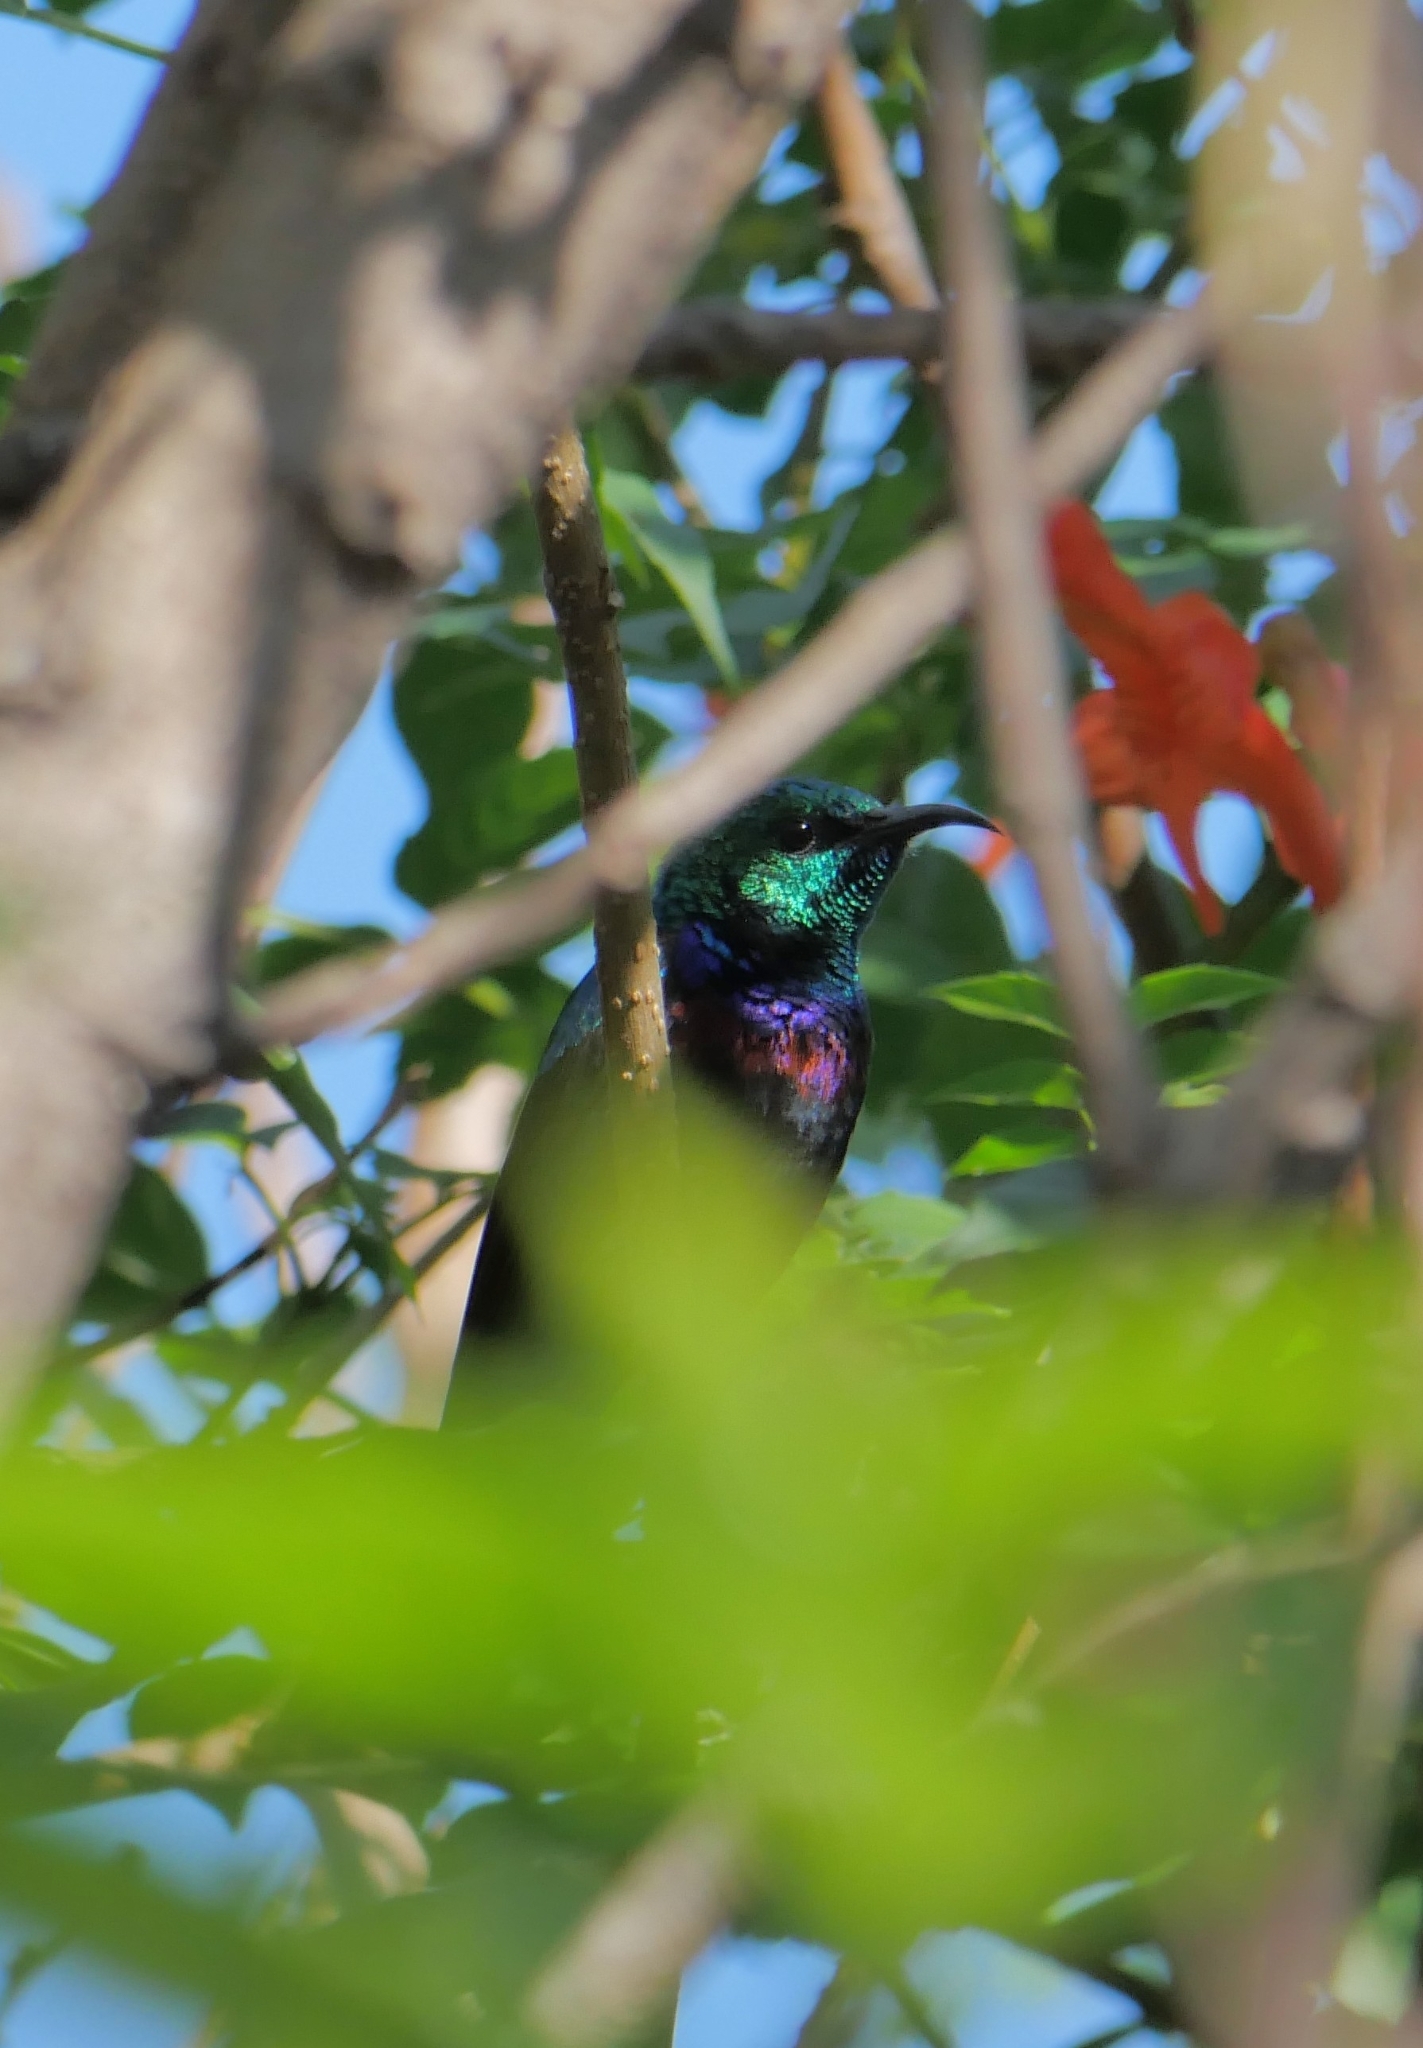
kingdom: Animalia
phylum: Chordata
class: Aves
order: Passeriformes
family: Nectariniidae
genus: Cinnyris
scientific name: Cinnyris bifasciatus
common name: Purple-banded sunbird
